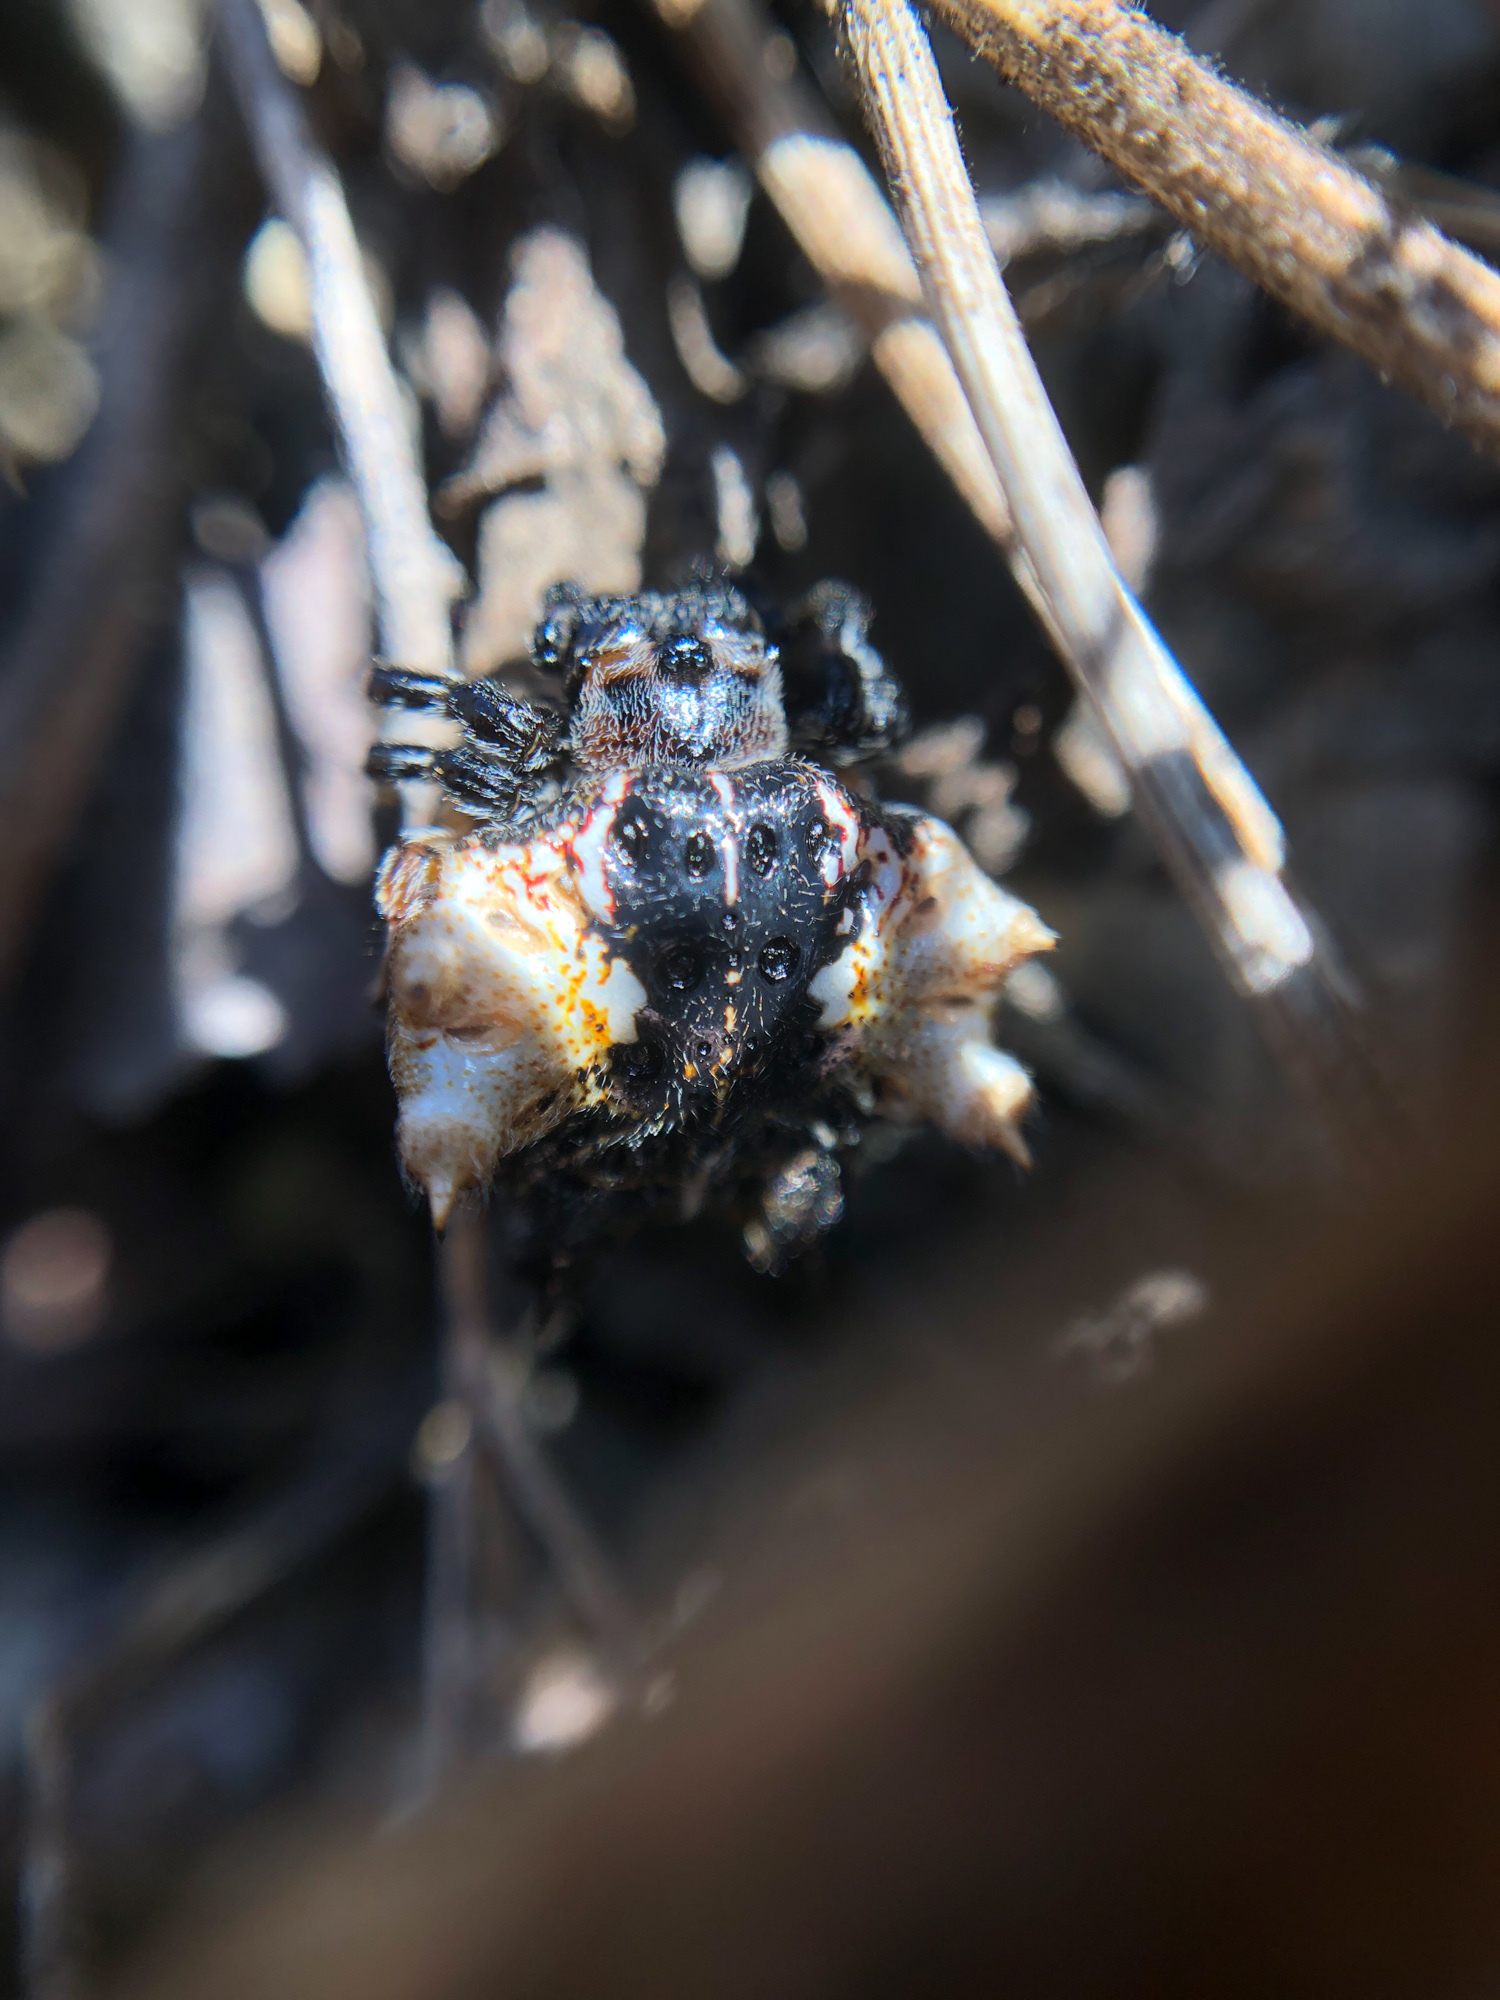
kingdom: Animalia
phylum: Arthropoda
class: Arachnida
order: Araneae
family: Araneidae
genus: Thelacantha
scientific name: Thelacantha brevispina
